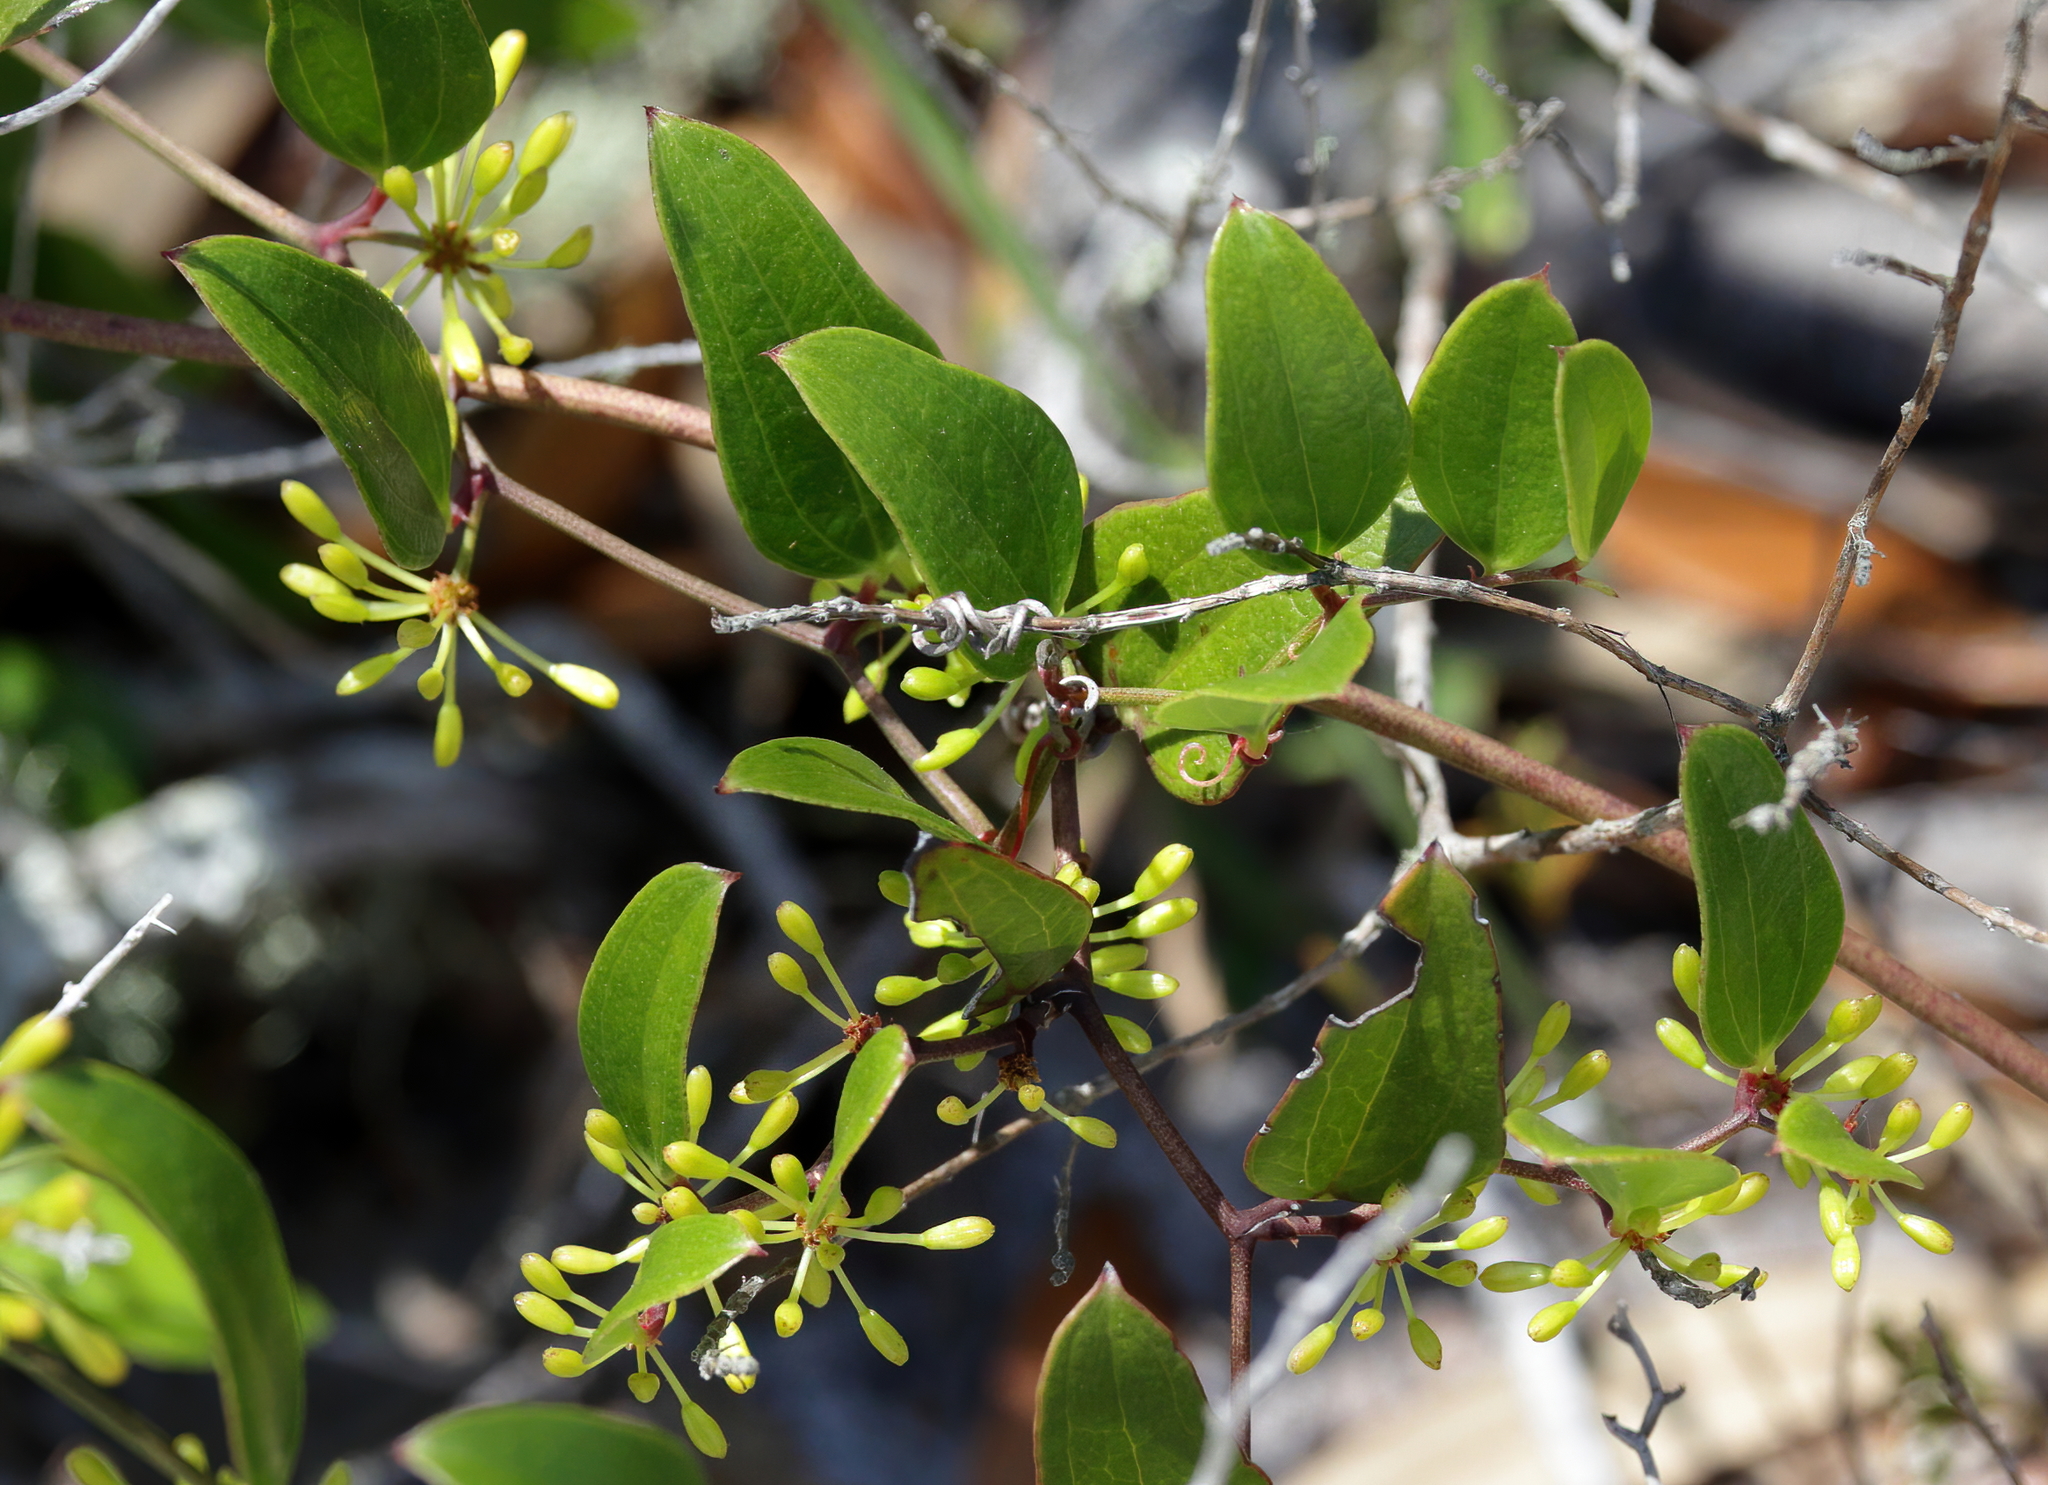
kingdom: Plantae
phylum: Tracheophyta
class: Liliopsida
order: Liliales
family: Smilacaceae
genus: Smilax
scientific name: Smilax auriculata
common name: Wild bamboo
